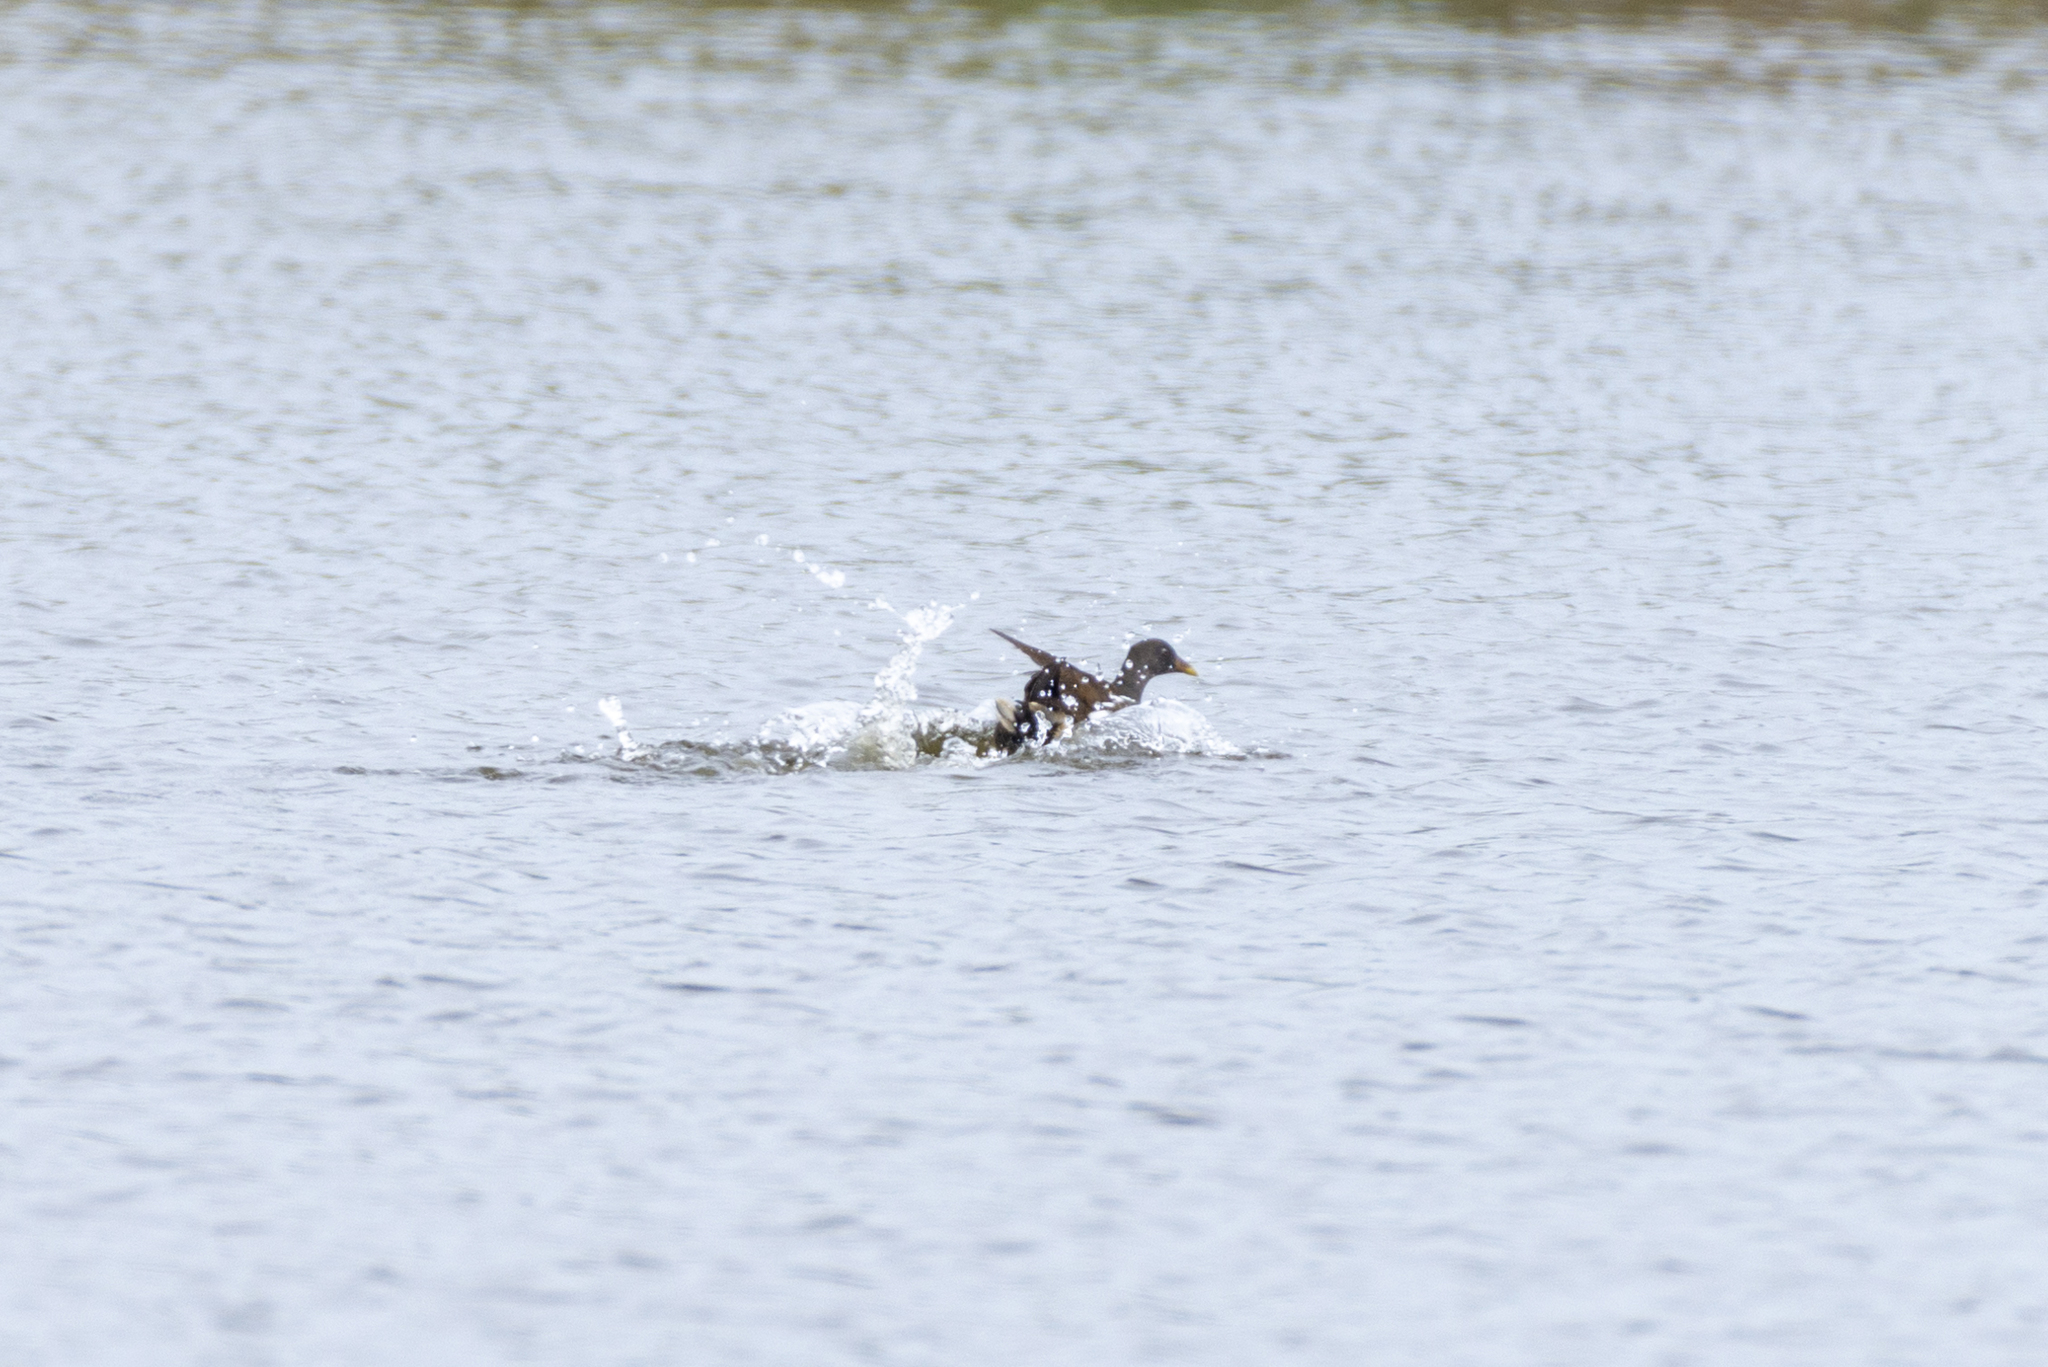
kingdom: Animalia
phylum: Chordata
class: Aves
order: Gruiformes
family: Rallidae
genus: Gallinula
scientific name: Gallinula chloropus
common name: Common moorhen
